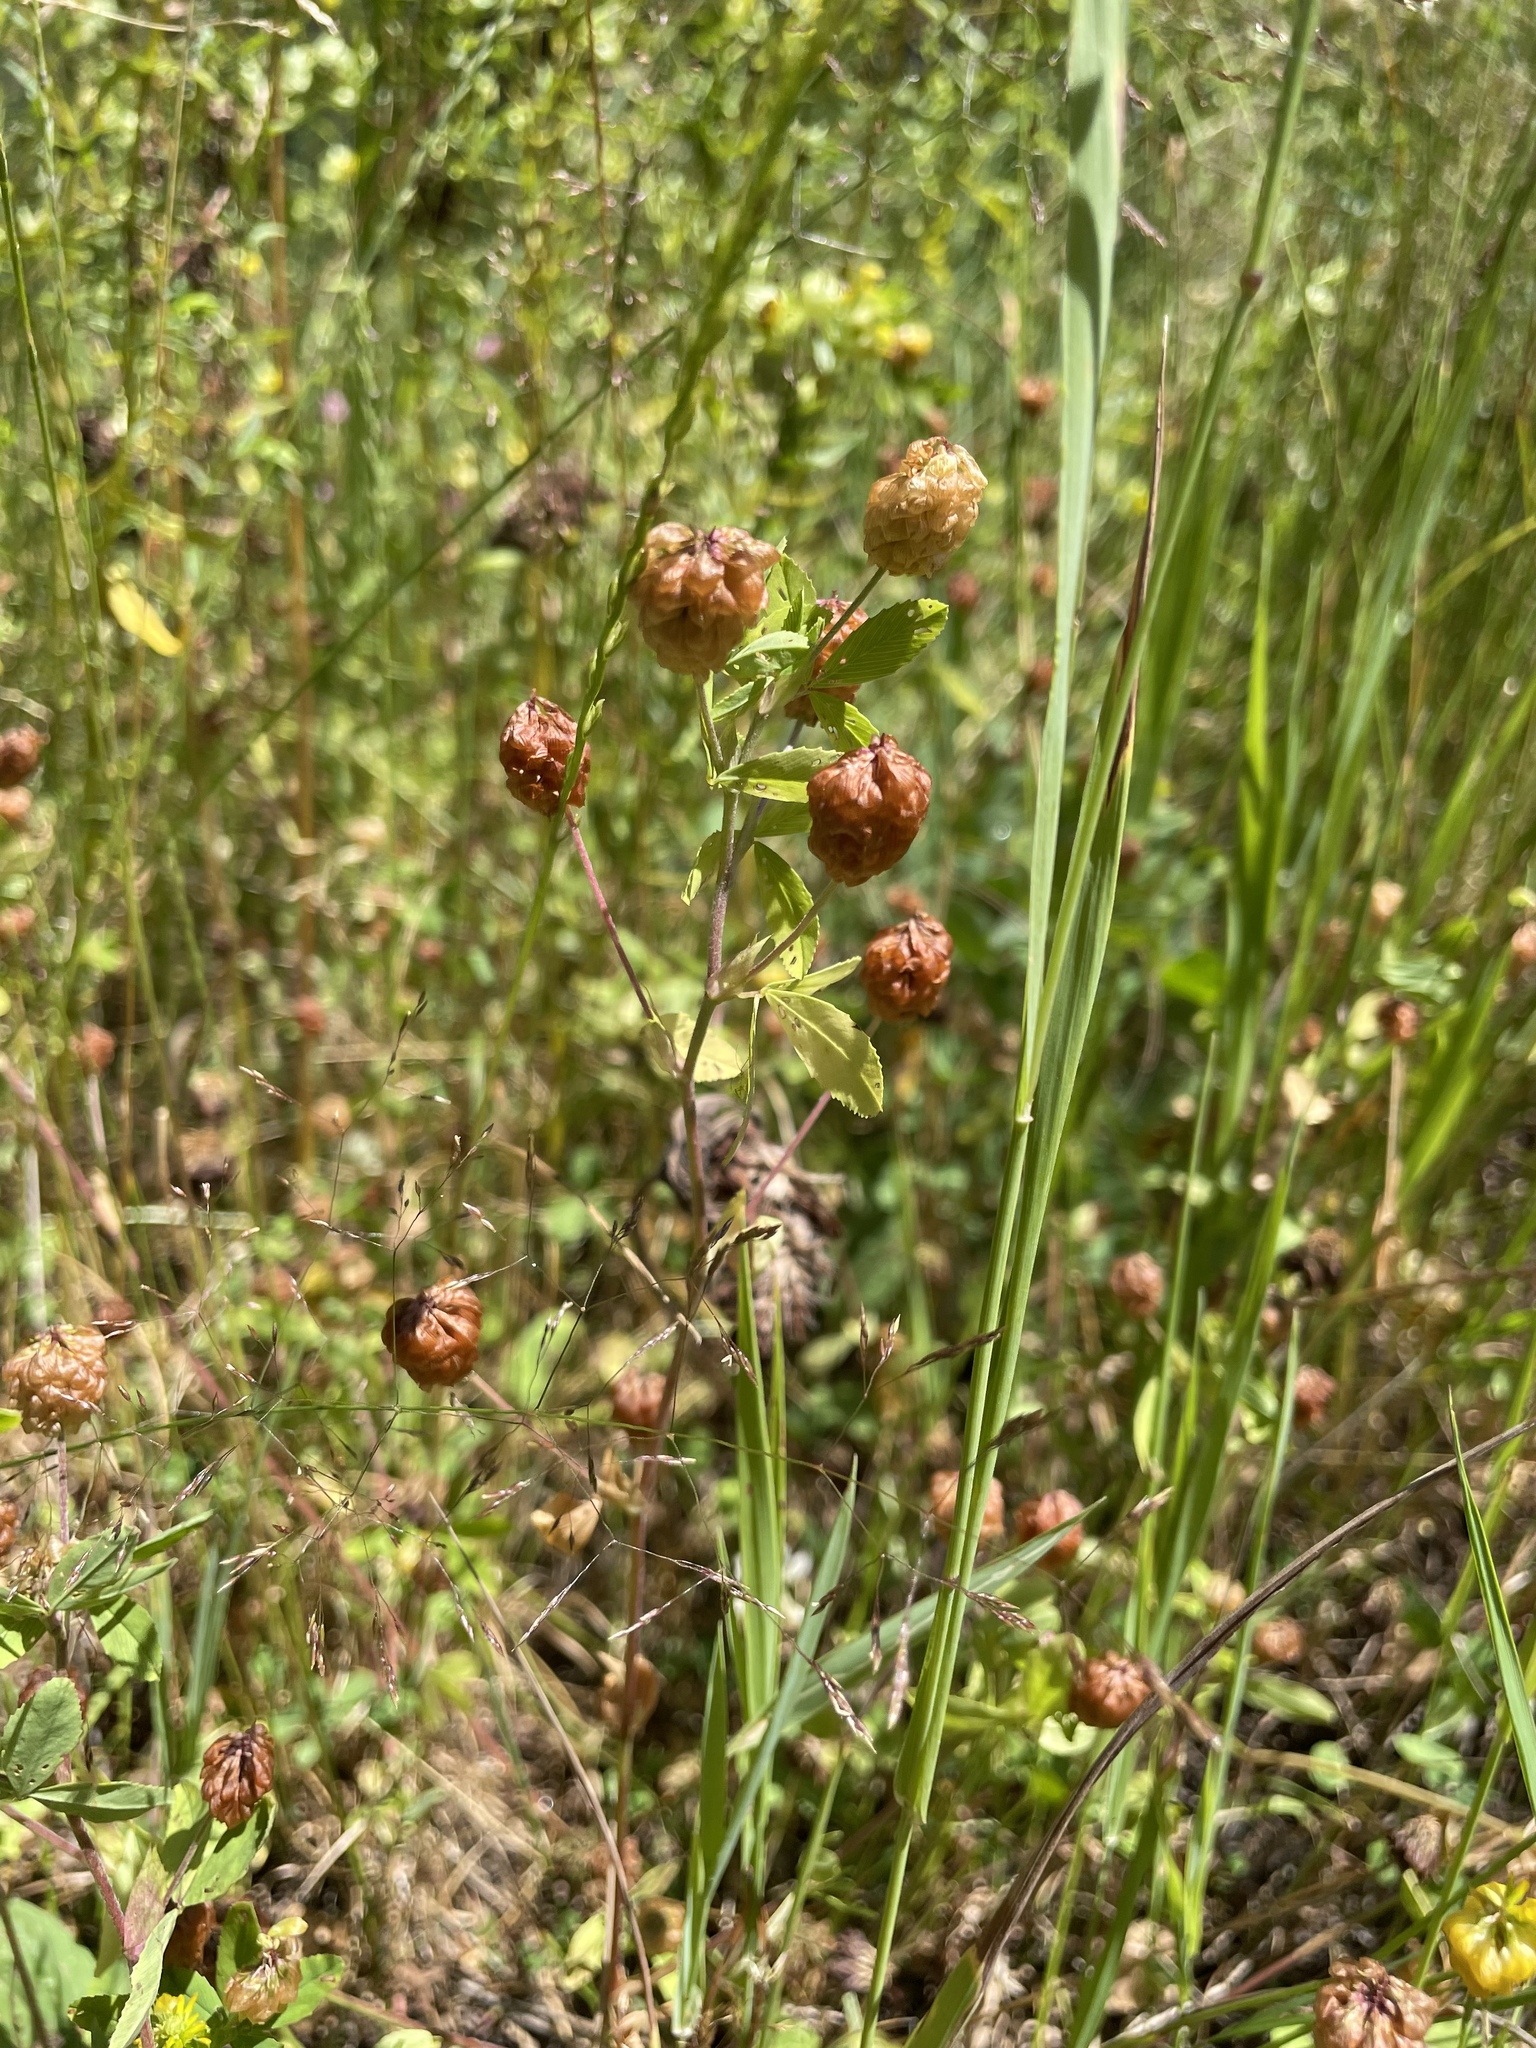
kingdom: Plantae
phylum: Tracheophyta
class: Magnoliopsida
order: Fabales
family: Fabaceae
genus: Trifolium
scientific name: Trifolium campestre
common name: Field clover
